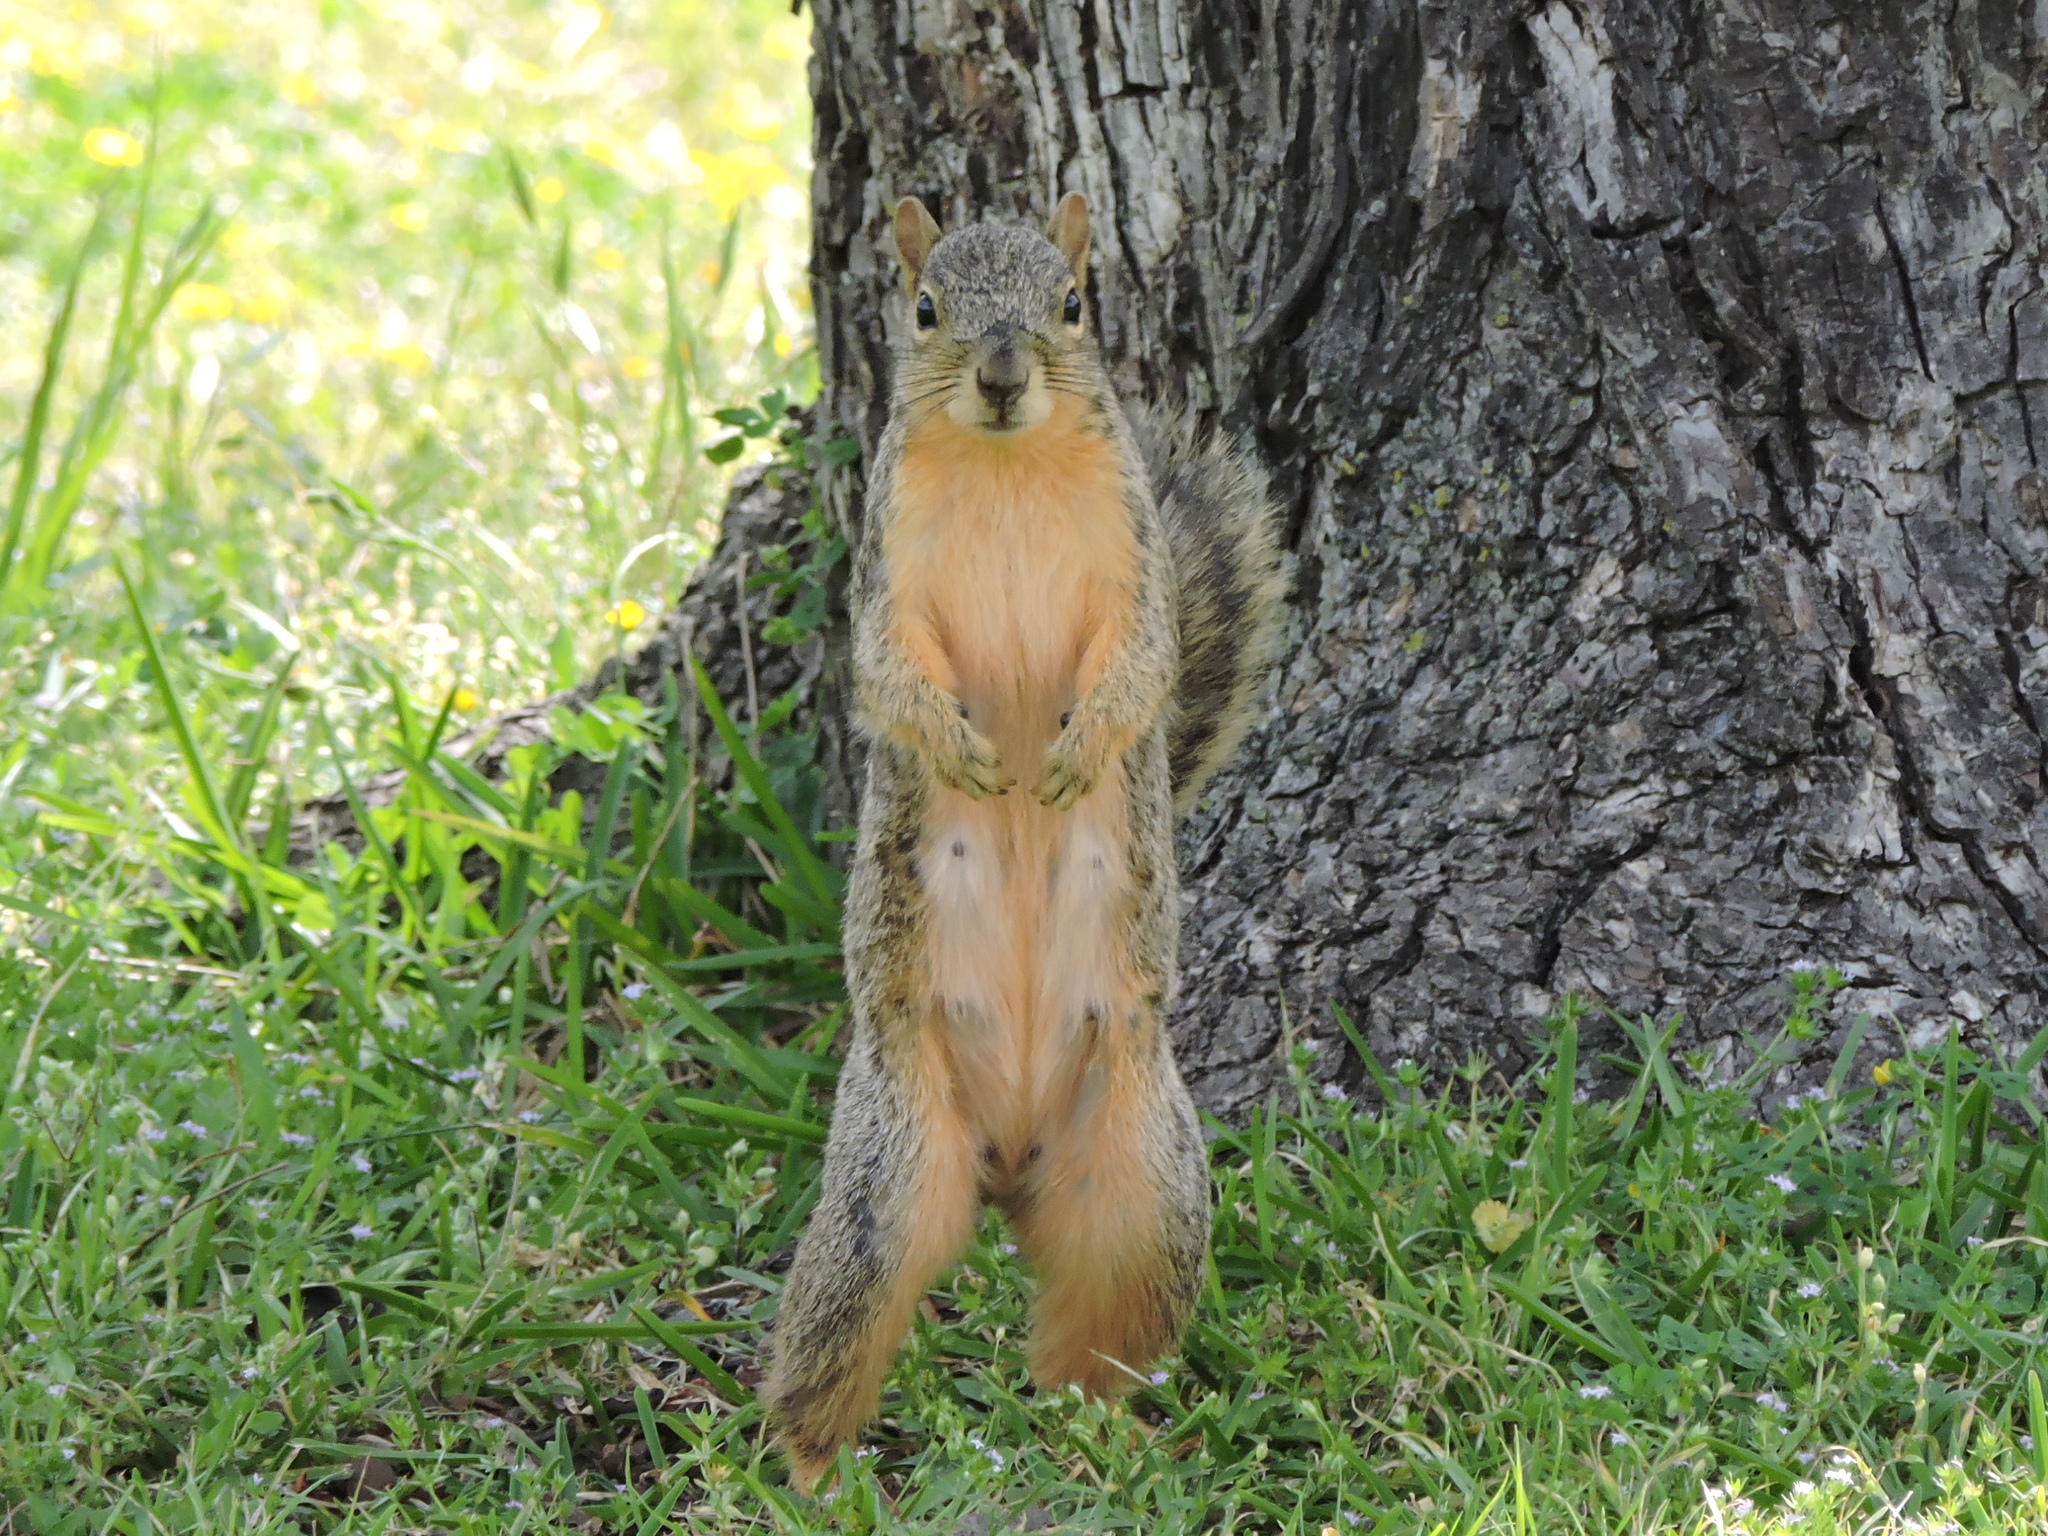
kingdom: Animalia
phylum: Chordata
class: Mammalia
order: Rodentia
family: Sciuridae
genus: Sciurus
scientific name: Sciurus niger
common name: Fox squirrel
